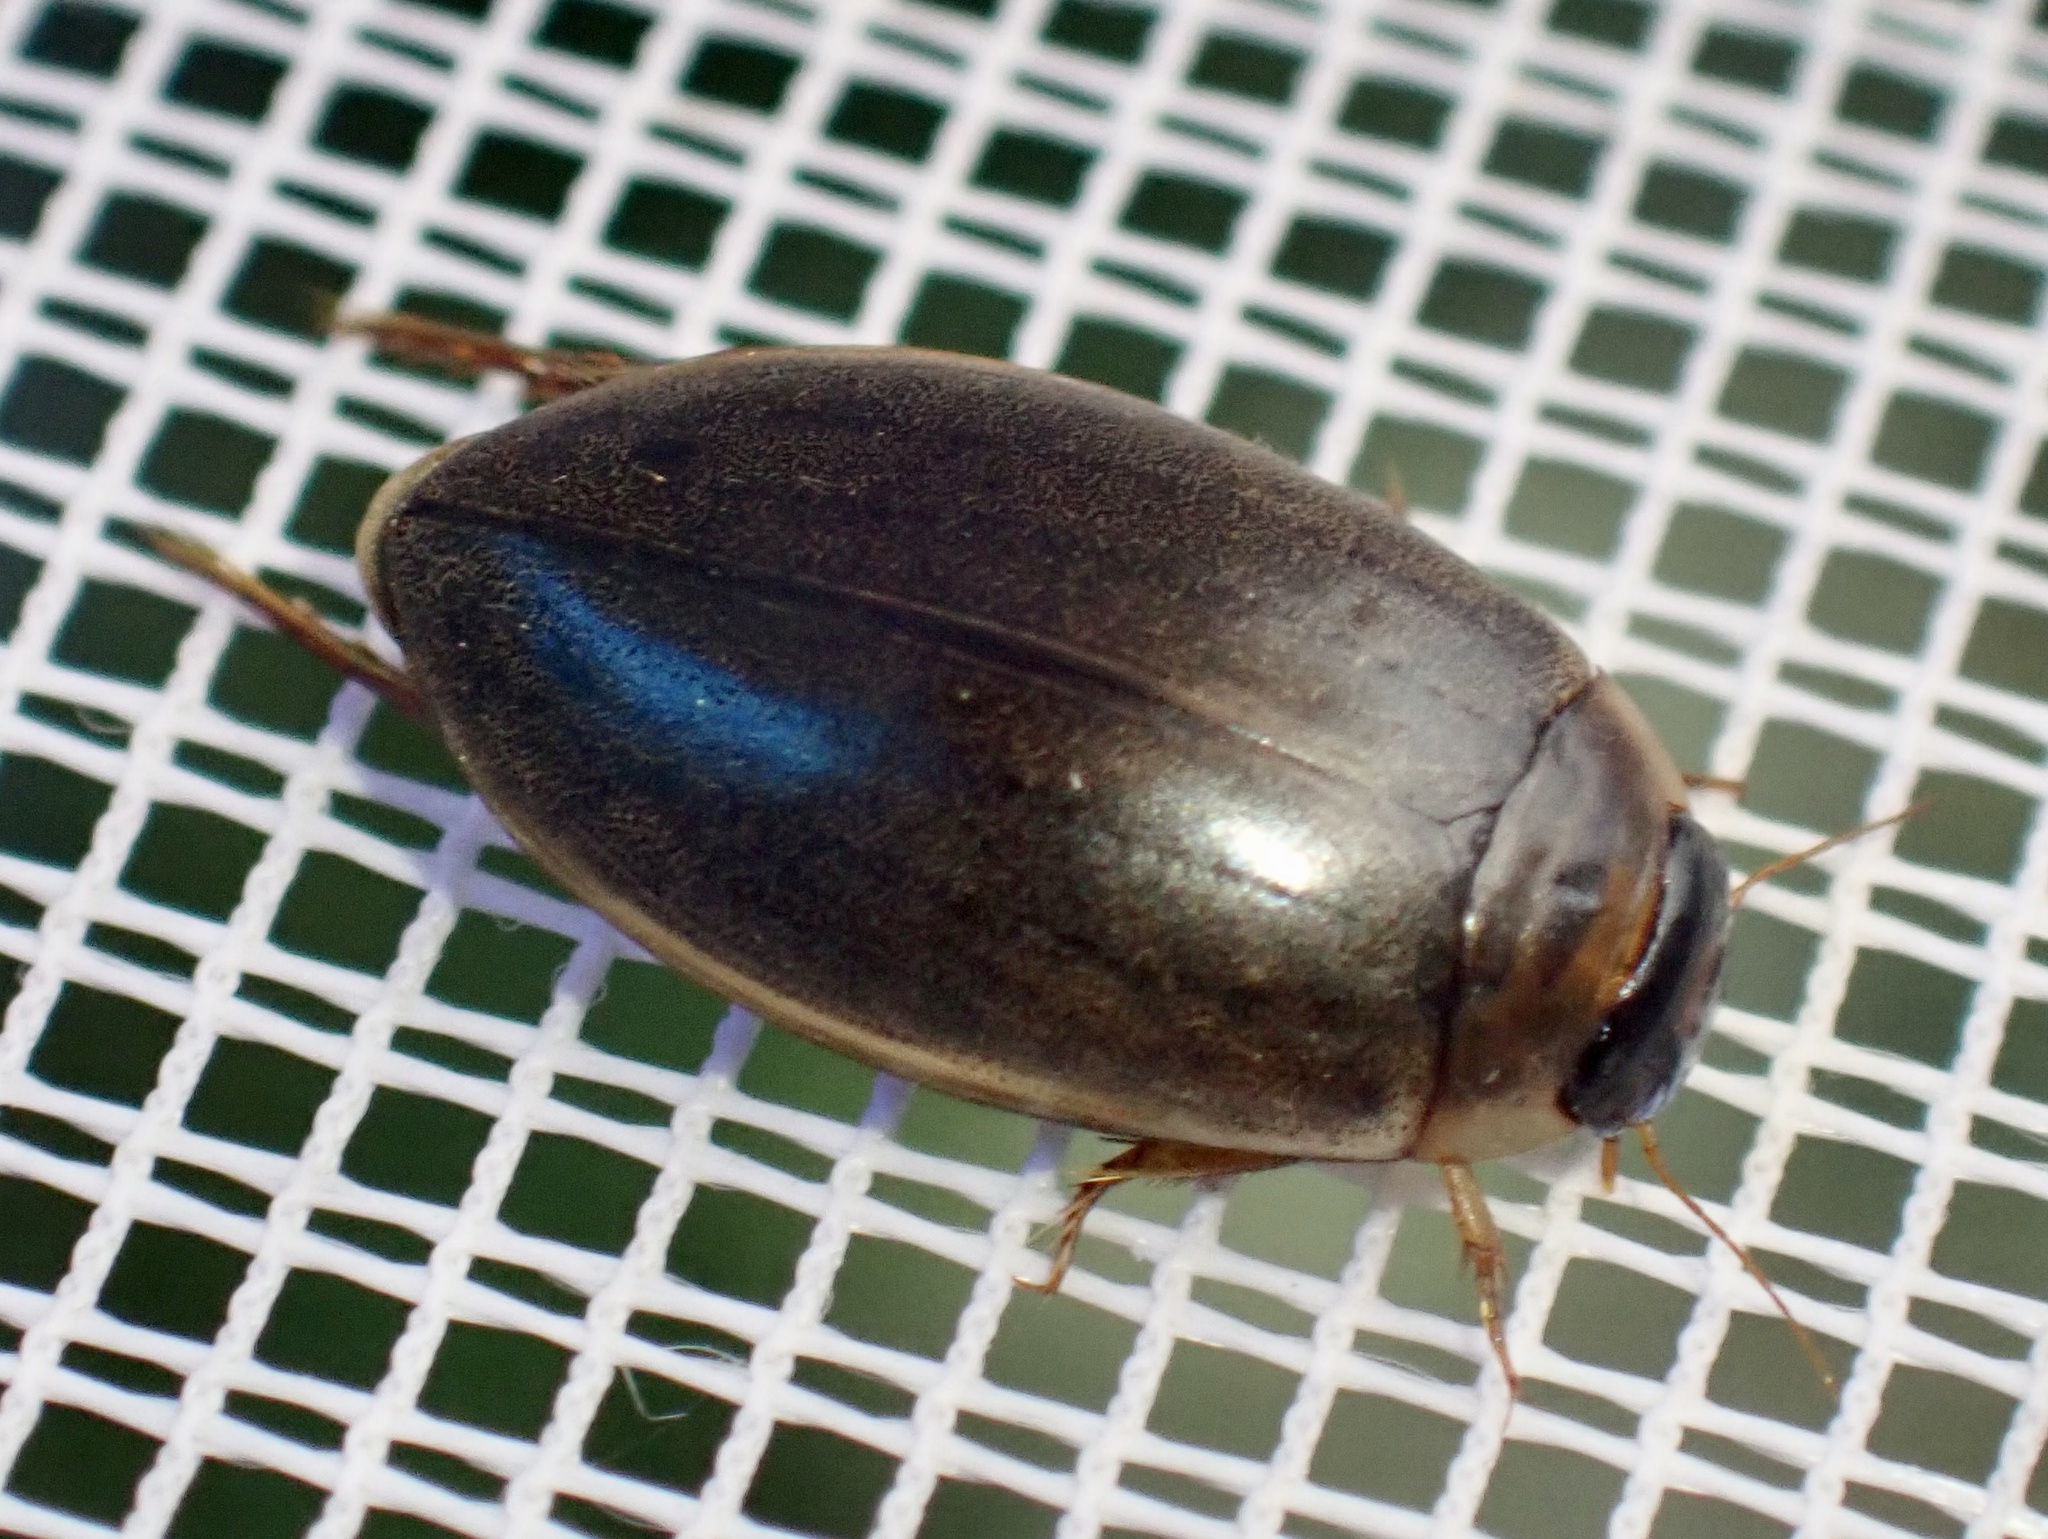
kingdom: Animalia
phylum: Arthropoda
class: Insecta
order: Coleoptera
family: Dytiscidae
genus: Rhantus
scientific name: Rhantus suturalis
